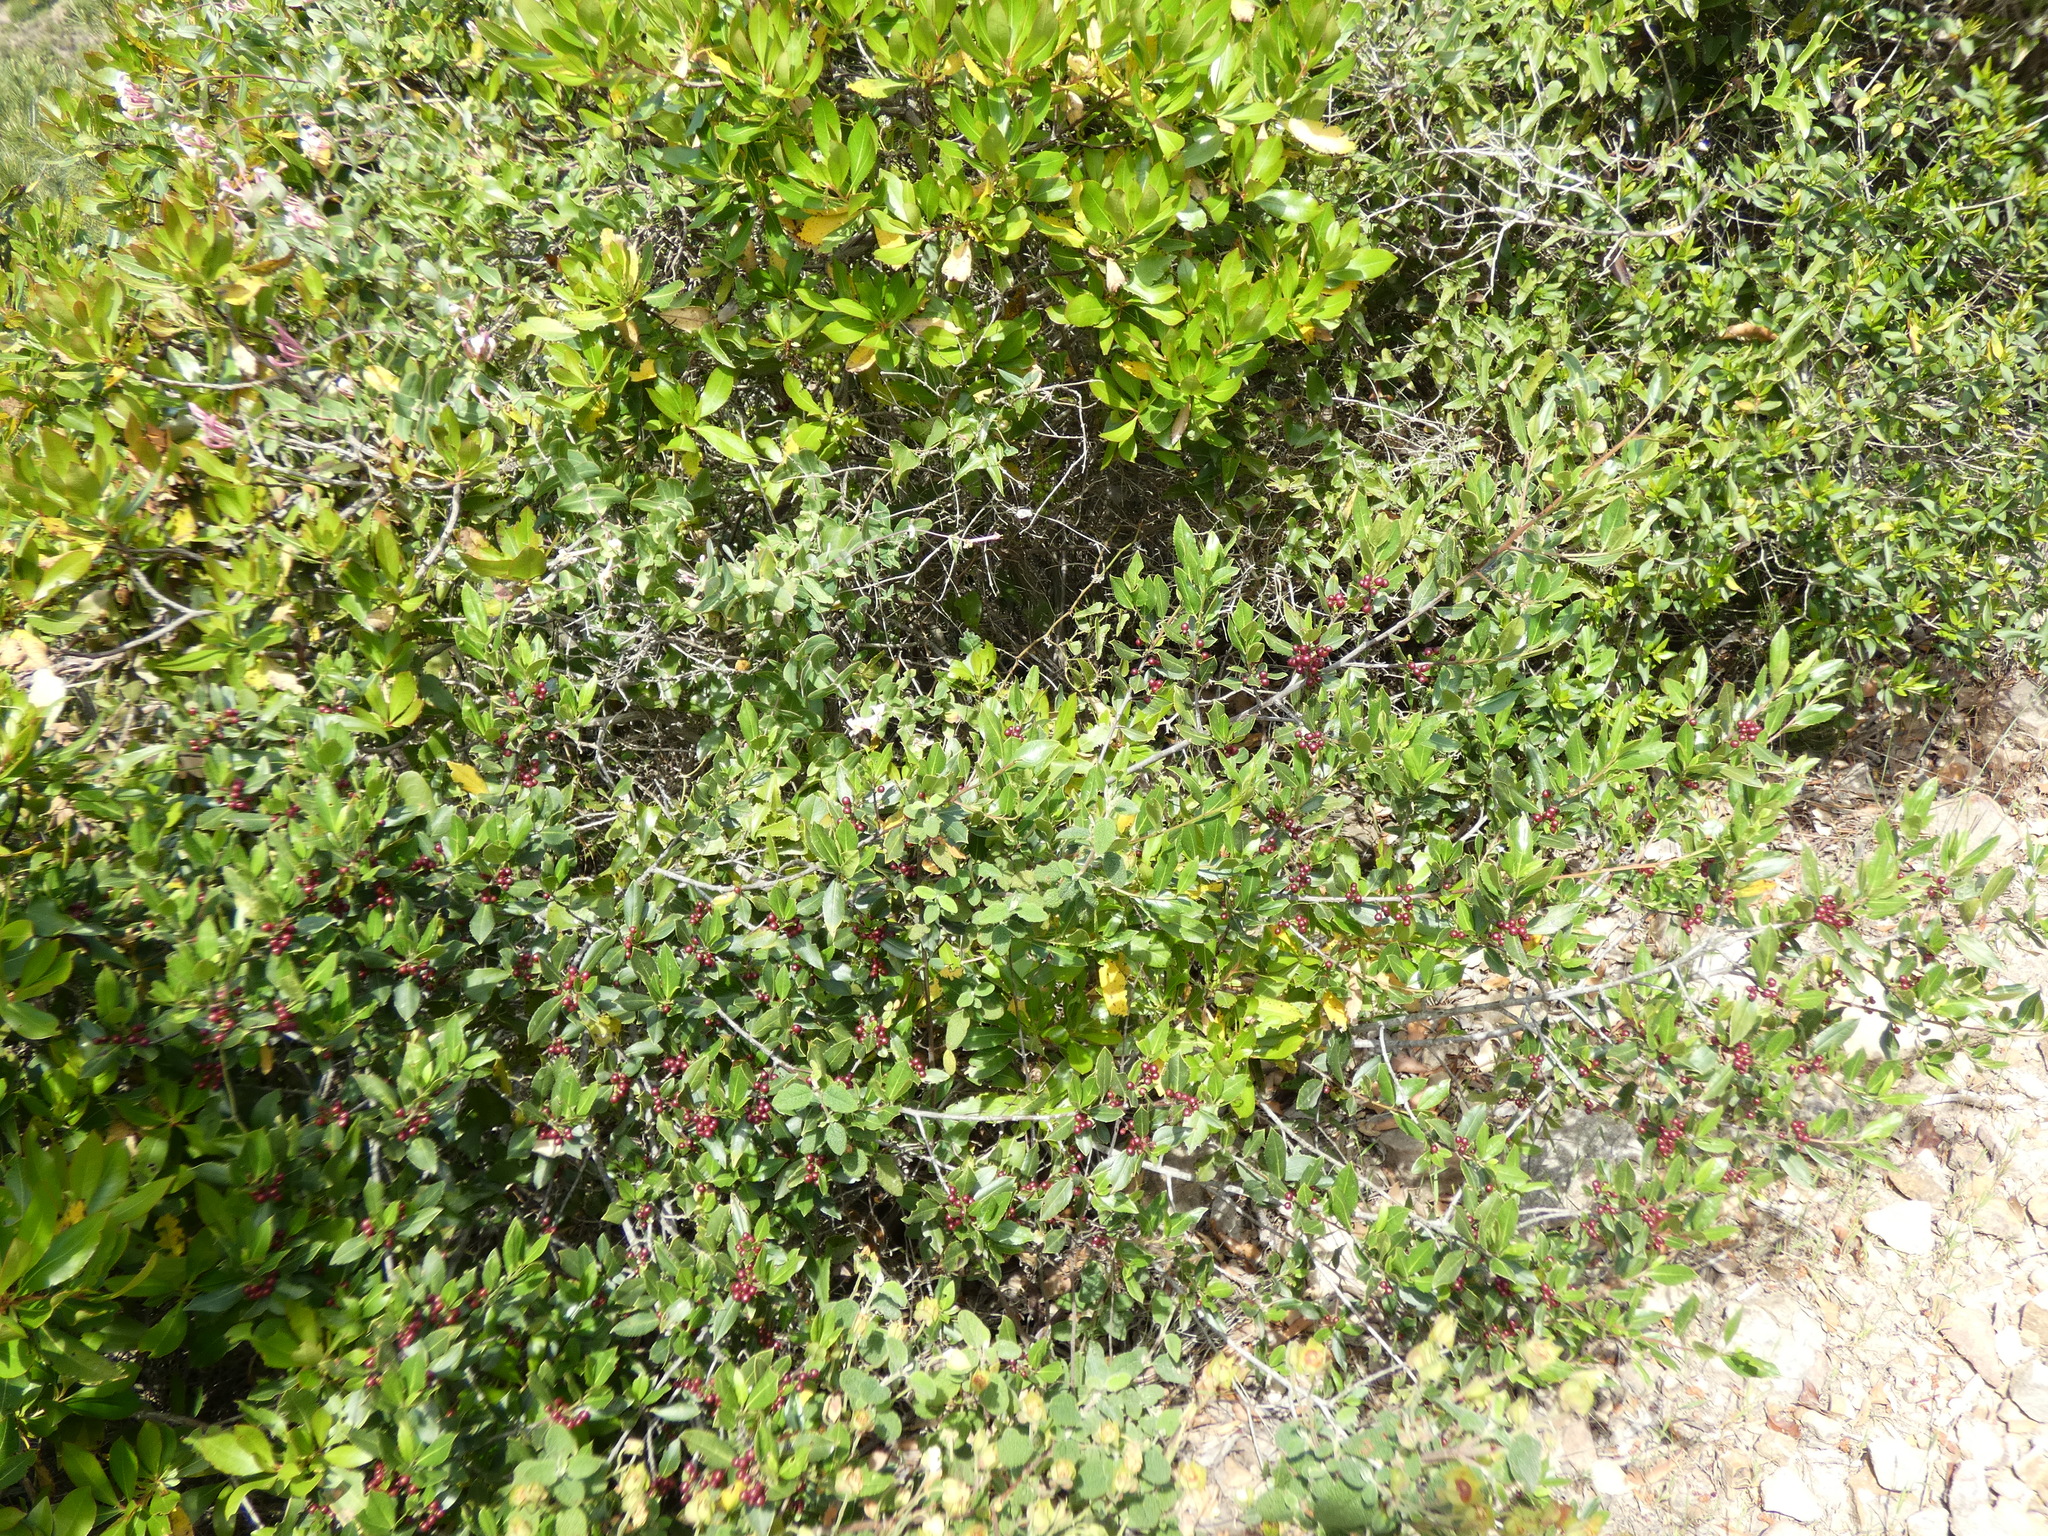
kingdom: Plantae
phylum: Tracheophyta
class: Magnoliopsida
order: Rosales
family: Rhamnaceae
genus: Rhamnus
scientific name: Rhamnus alaternus
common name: Mediterranean buckthorn
